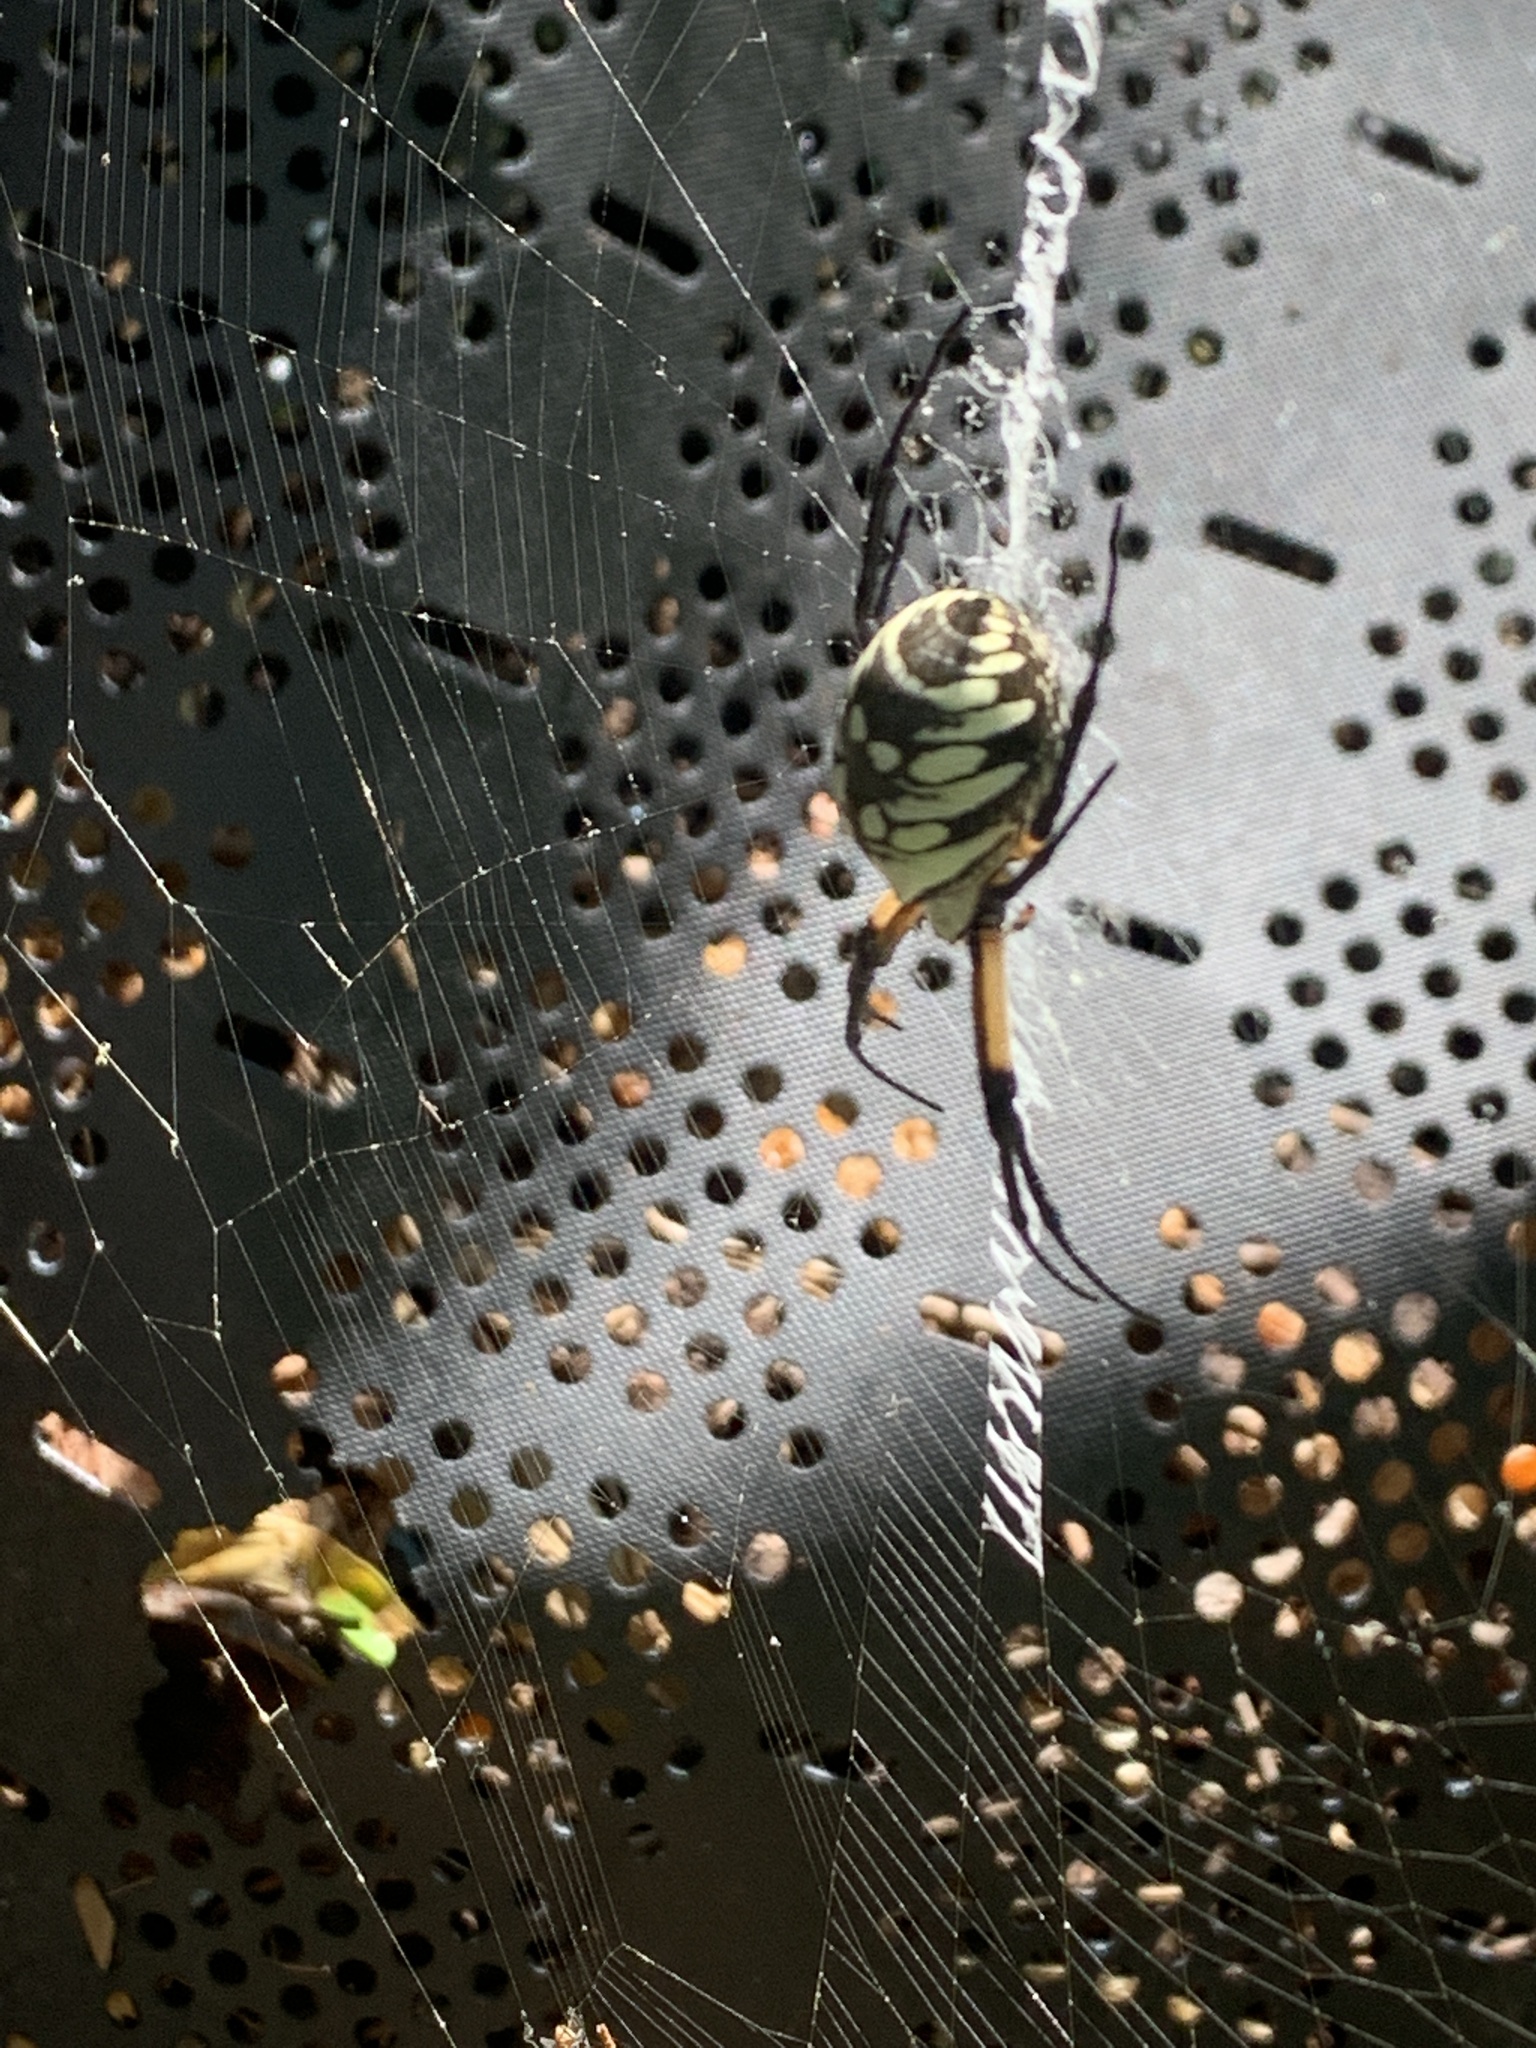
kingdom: Animalia
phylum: Arthropoda
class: Arachnida
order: Araneae
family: Araneidae
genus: Argiope
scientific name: Argiope aurantia
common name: Orb weavers
